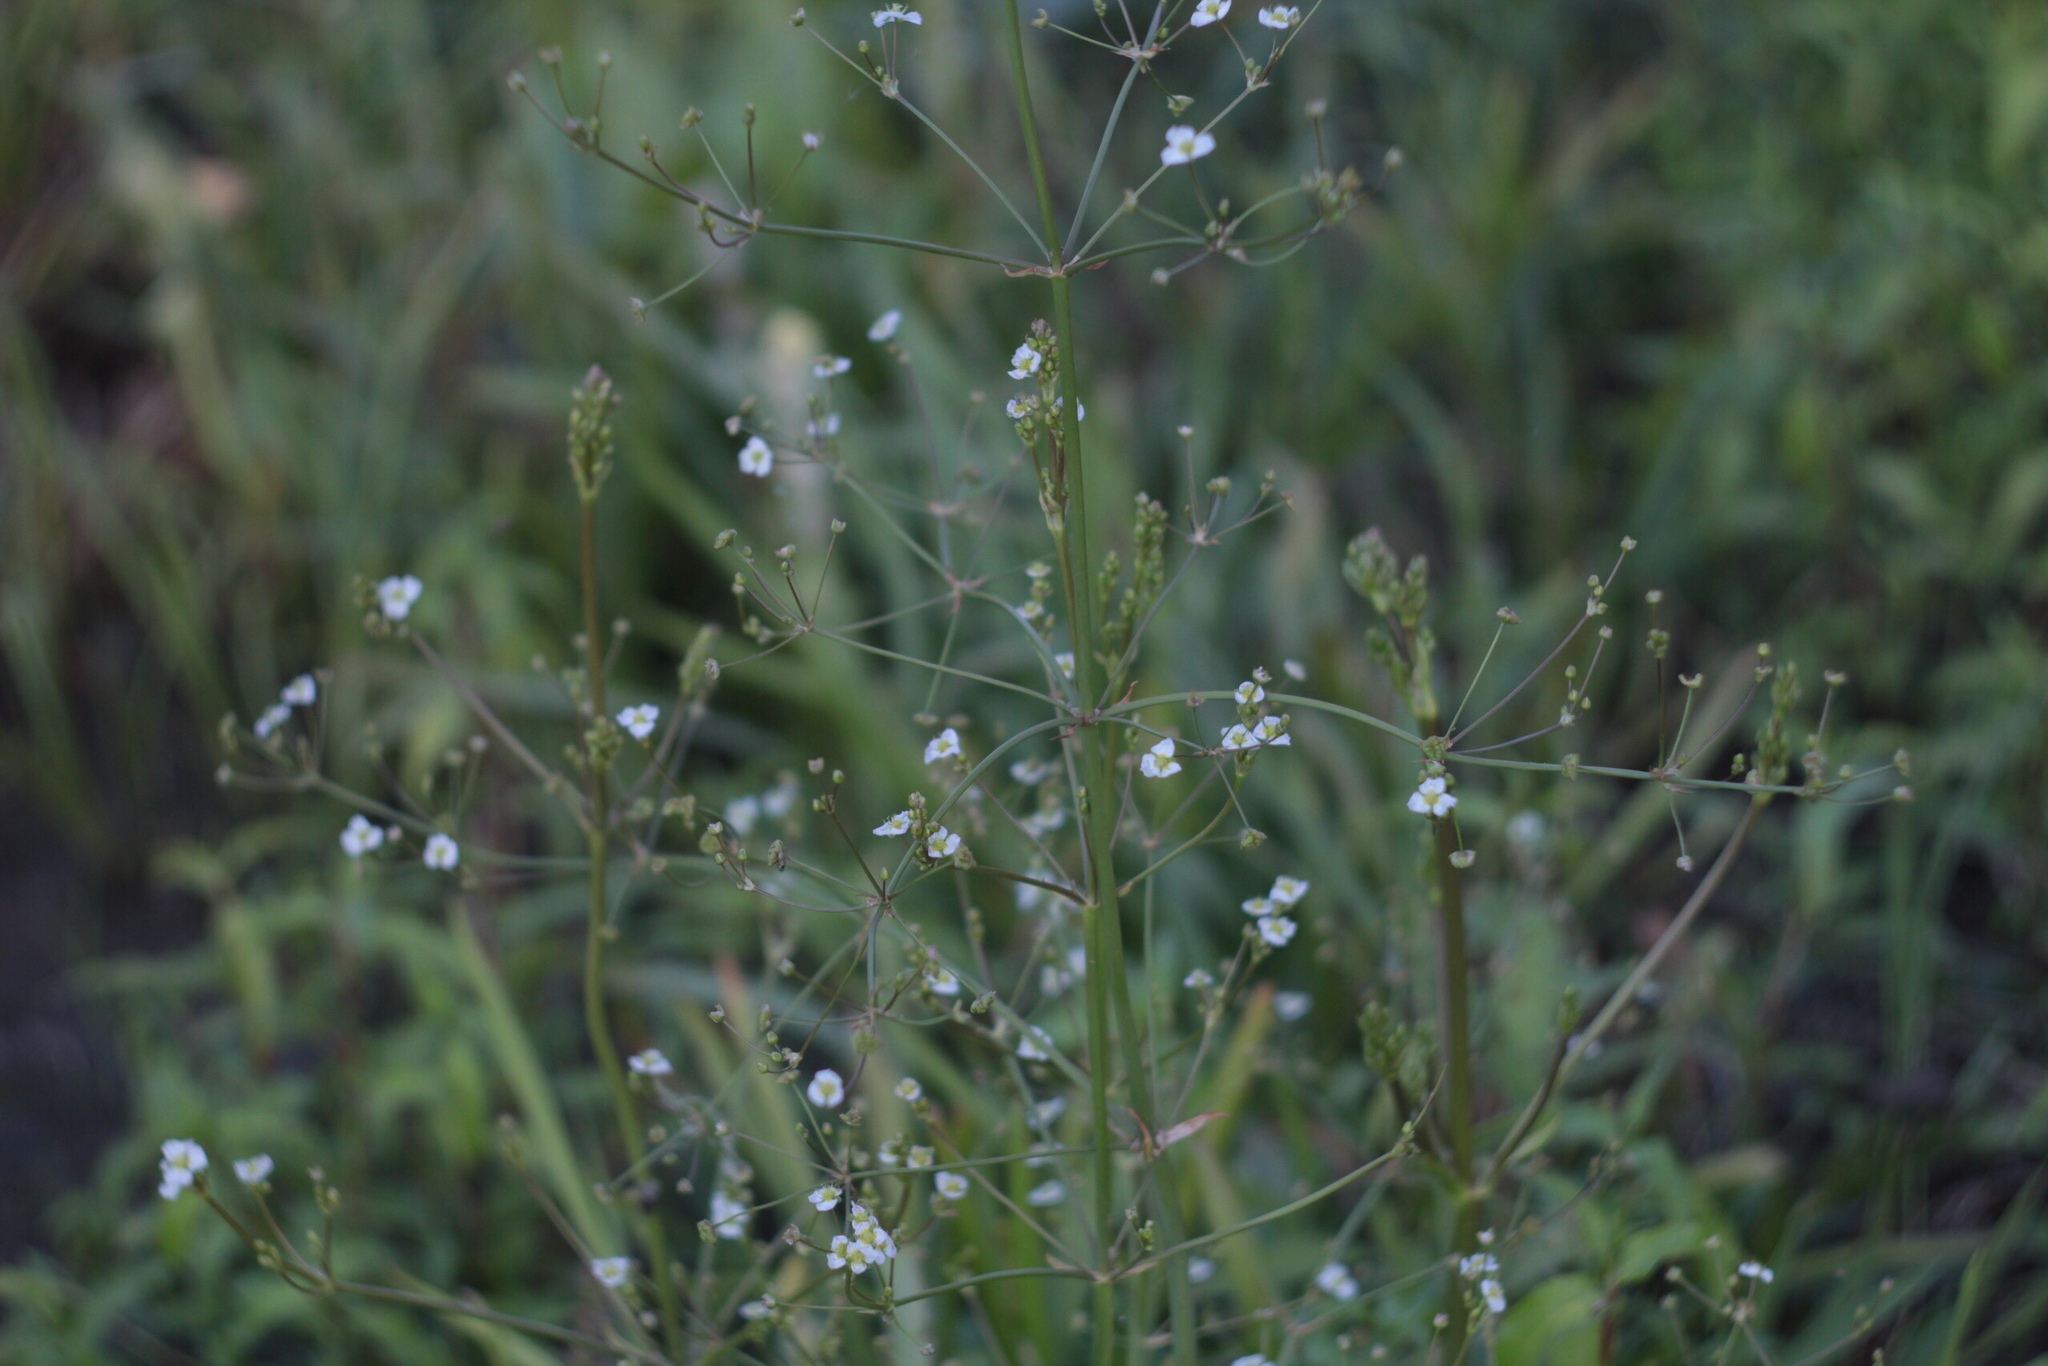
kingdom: Plantae
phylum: Tracheophyta
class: Liliopsida
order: Alismatales
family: Alismataceae
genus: Alisma
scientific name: Alisma plantago-aquatica
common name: Water-plantain
